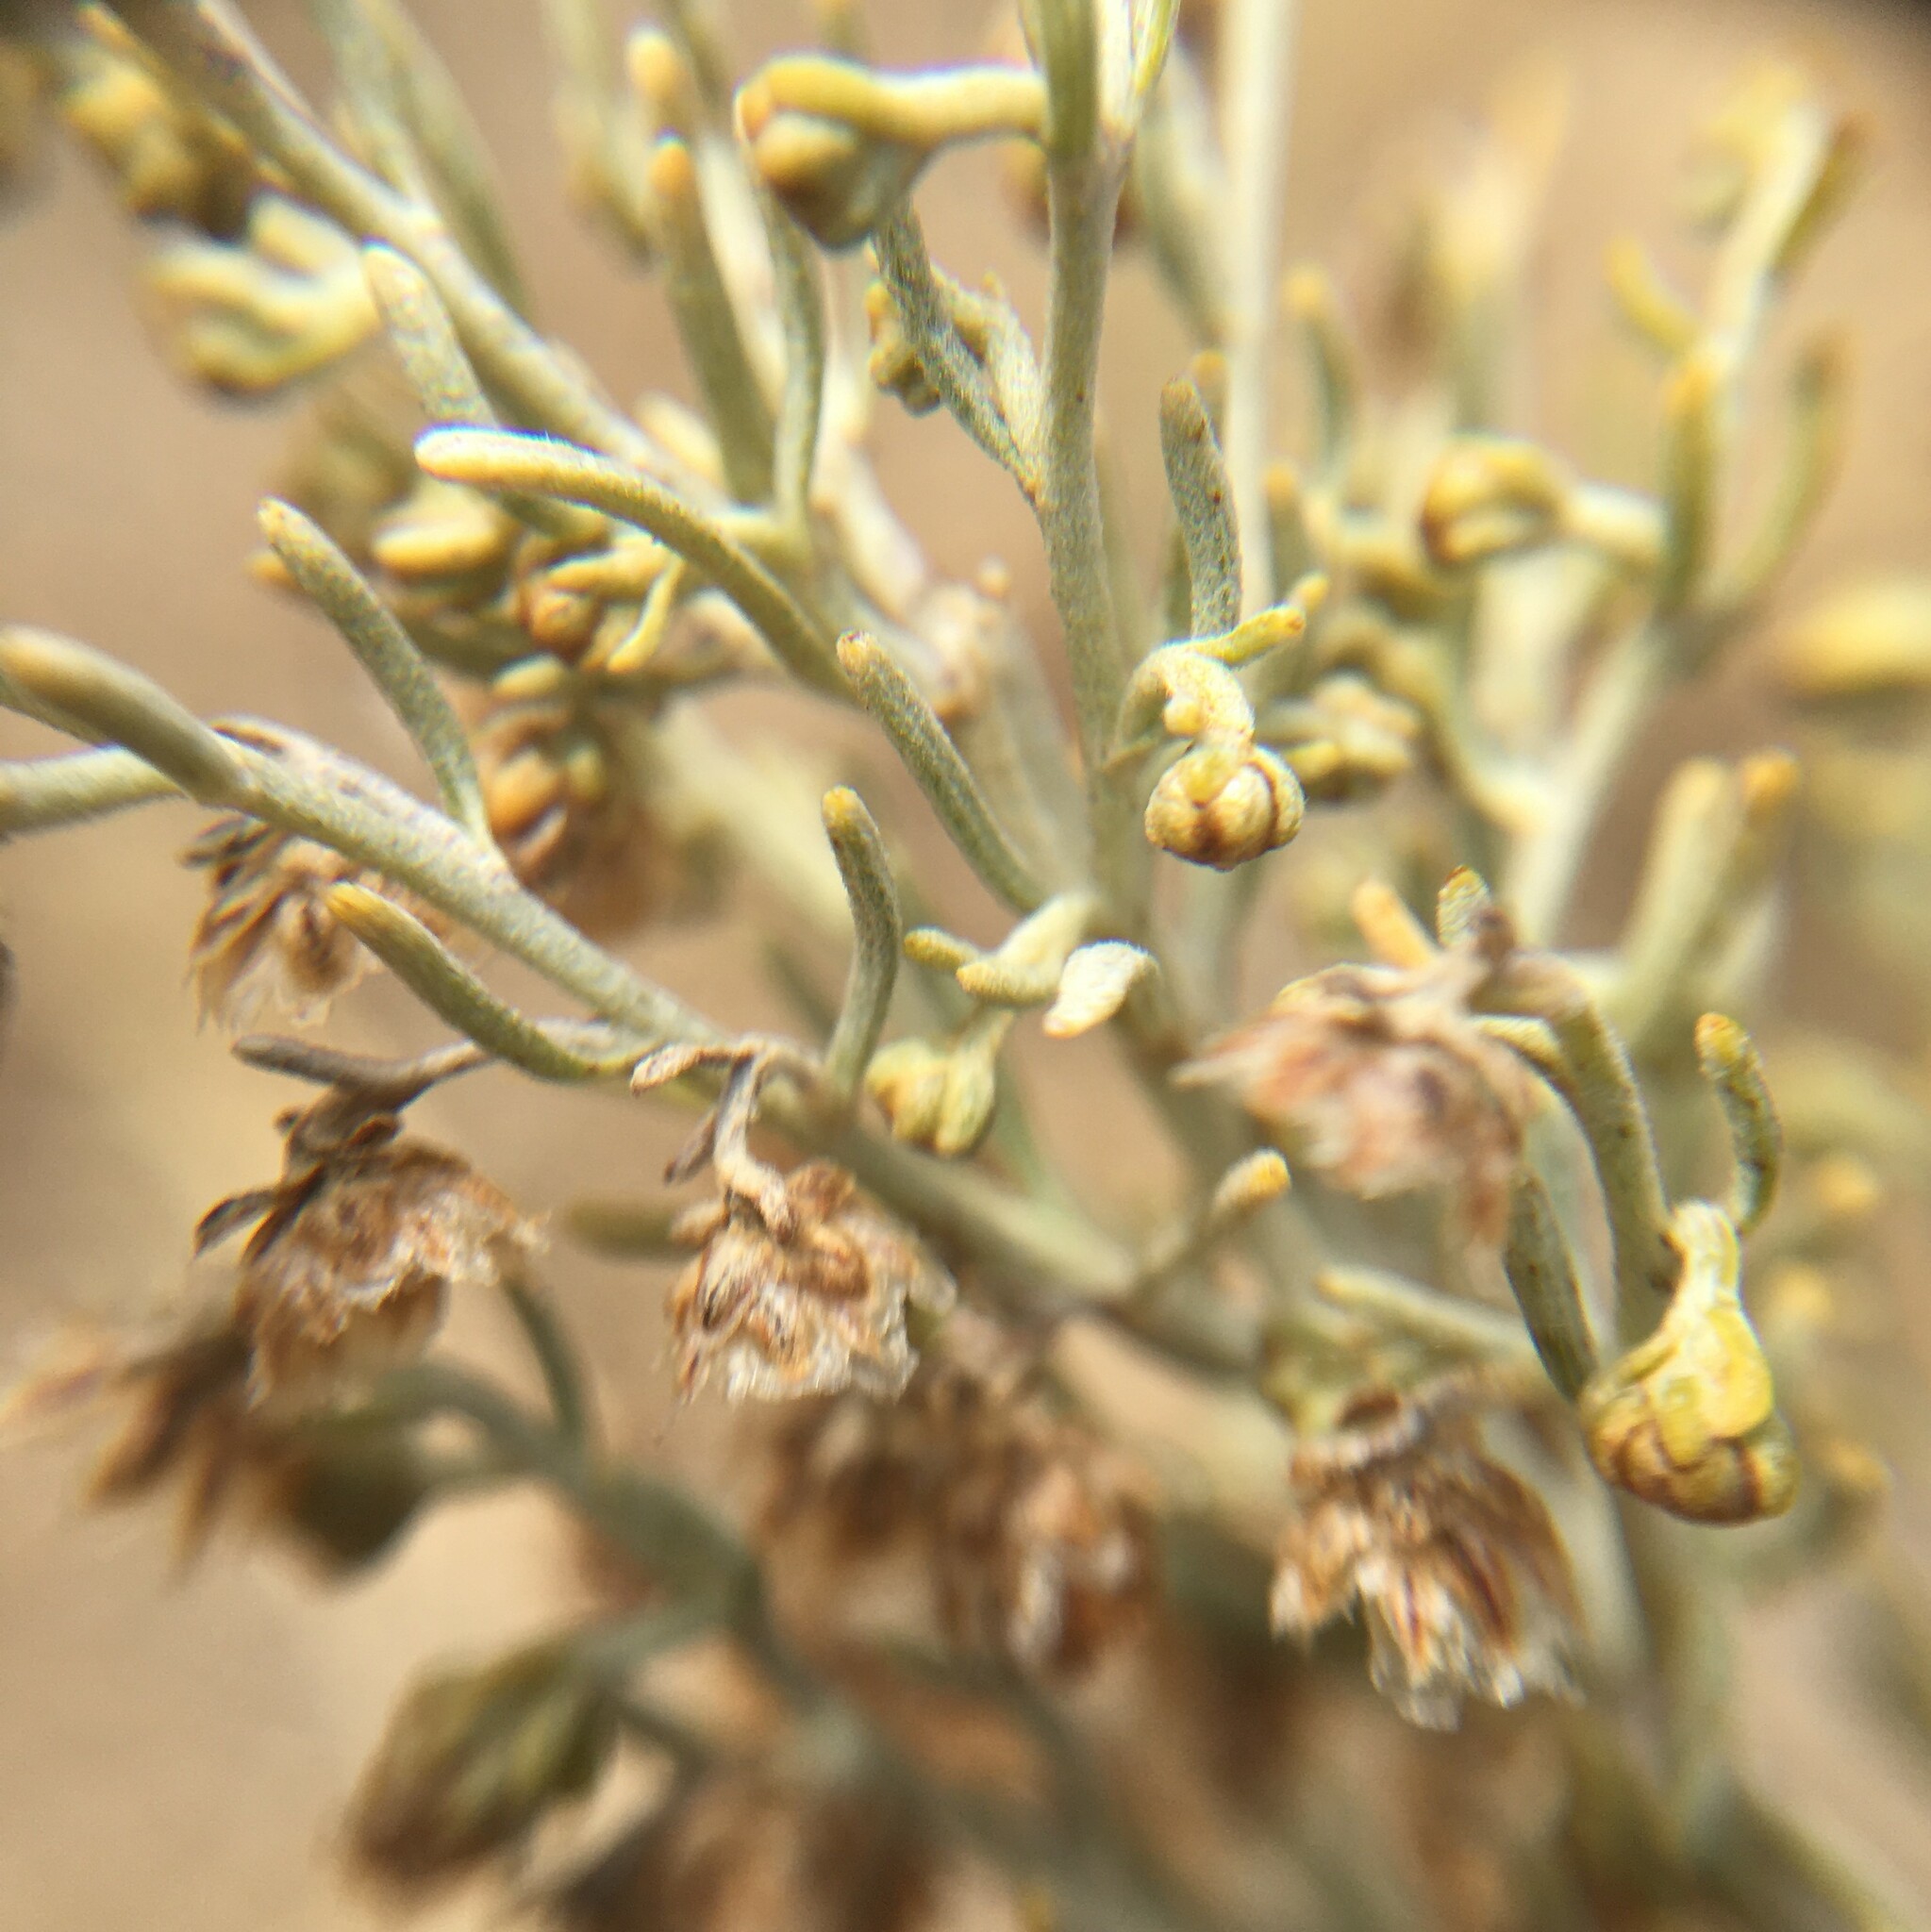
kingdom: Plantae
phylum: Tracheophyta
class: Magnoliopsida
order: Asterales
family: Asteraceae
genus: Artemisia
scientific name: Artemisia californica
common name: California sagebrush
